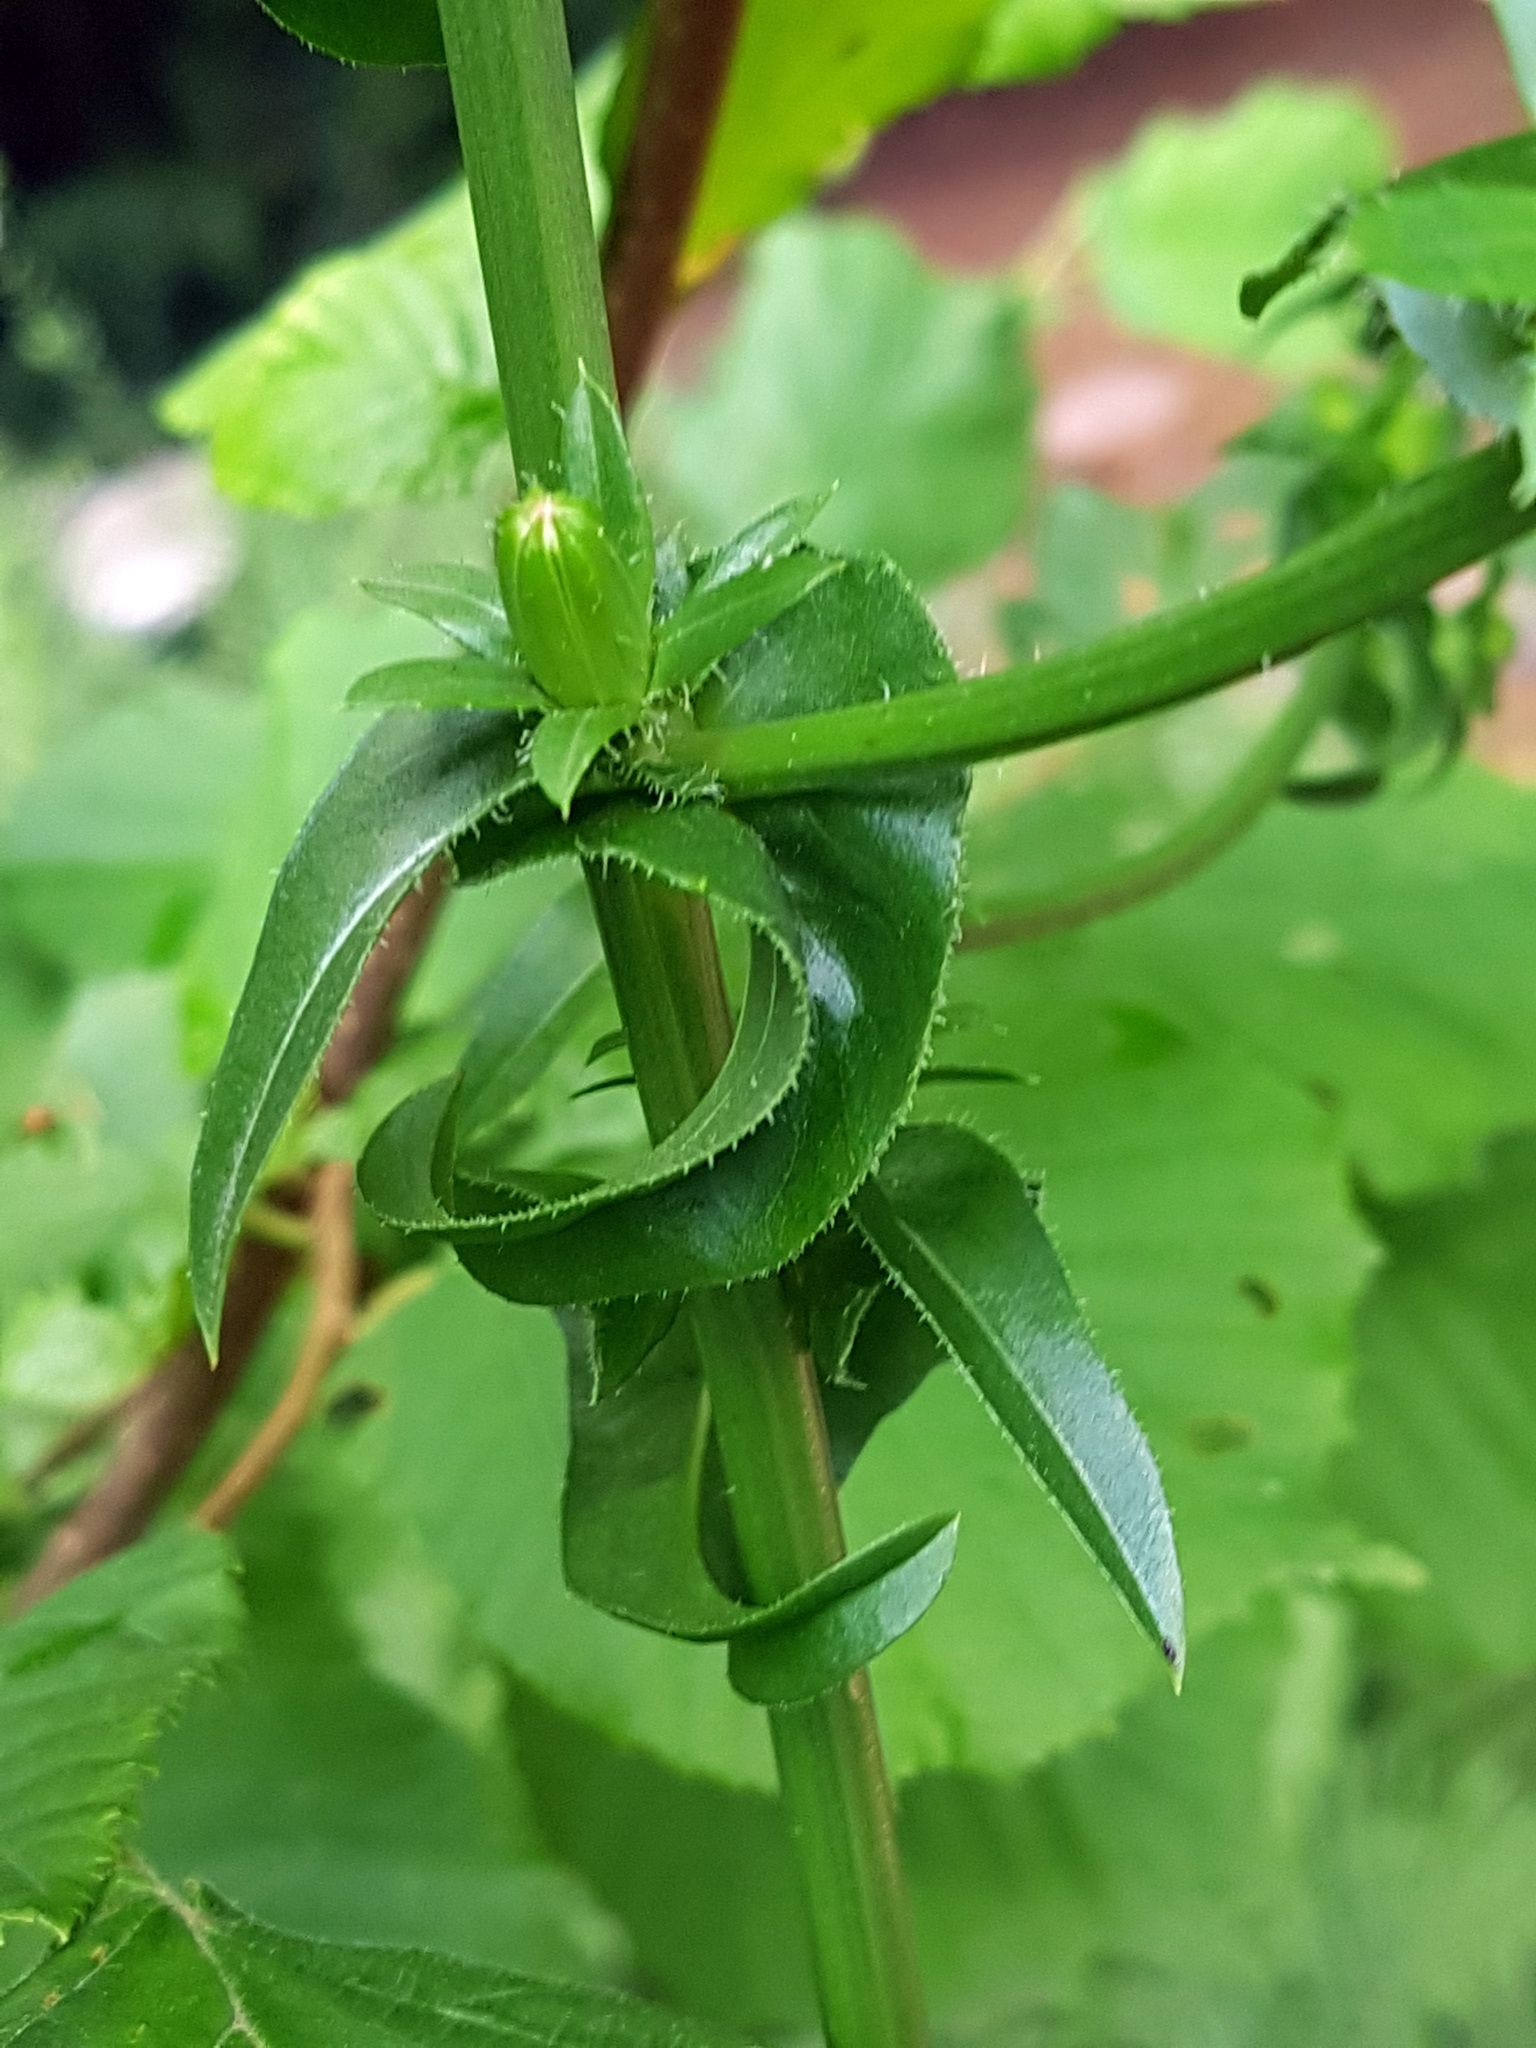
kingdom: Plantae
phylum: Tracheophyta
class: Magnoliopsida
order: Asterales
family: Asteraceae
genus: Cichorium
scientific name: Cichorium intybus
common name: Chicory
